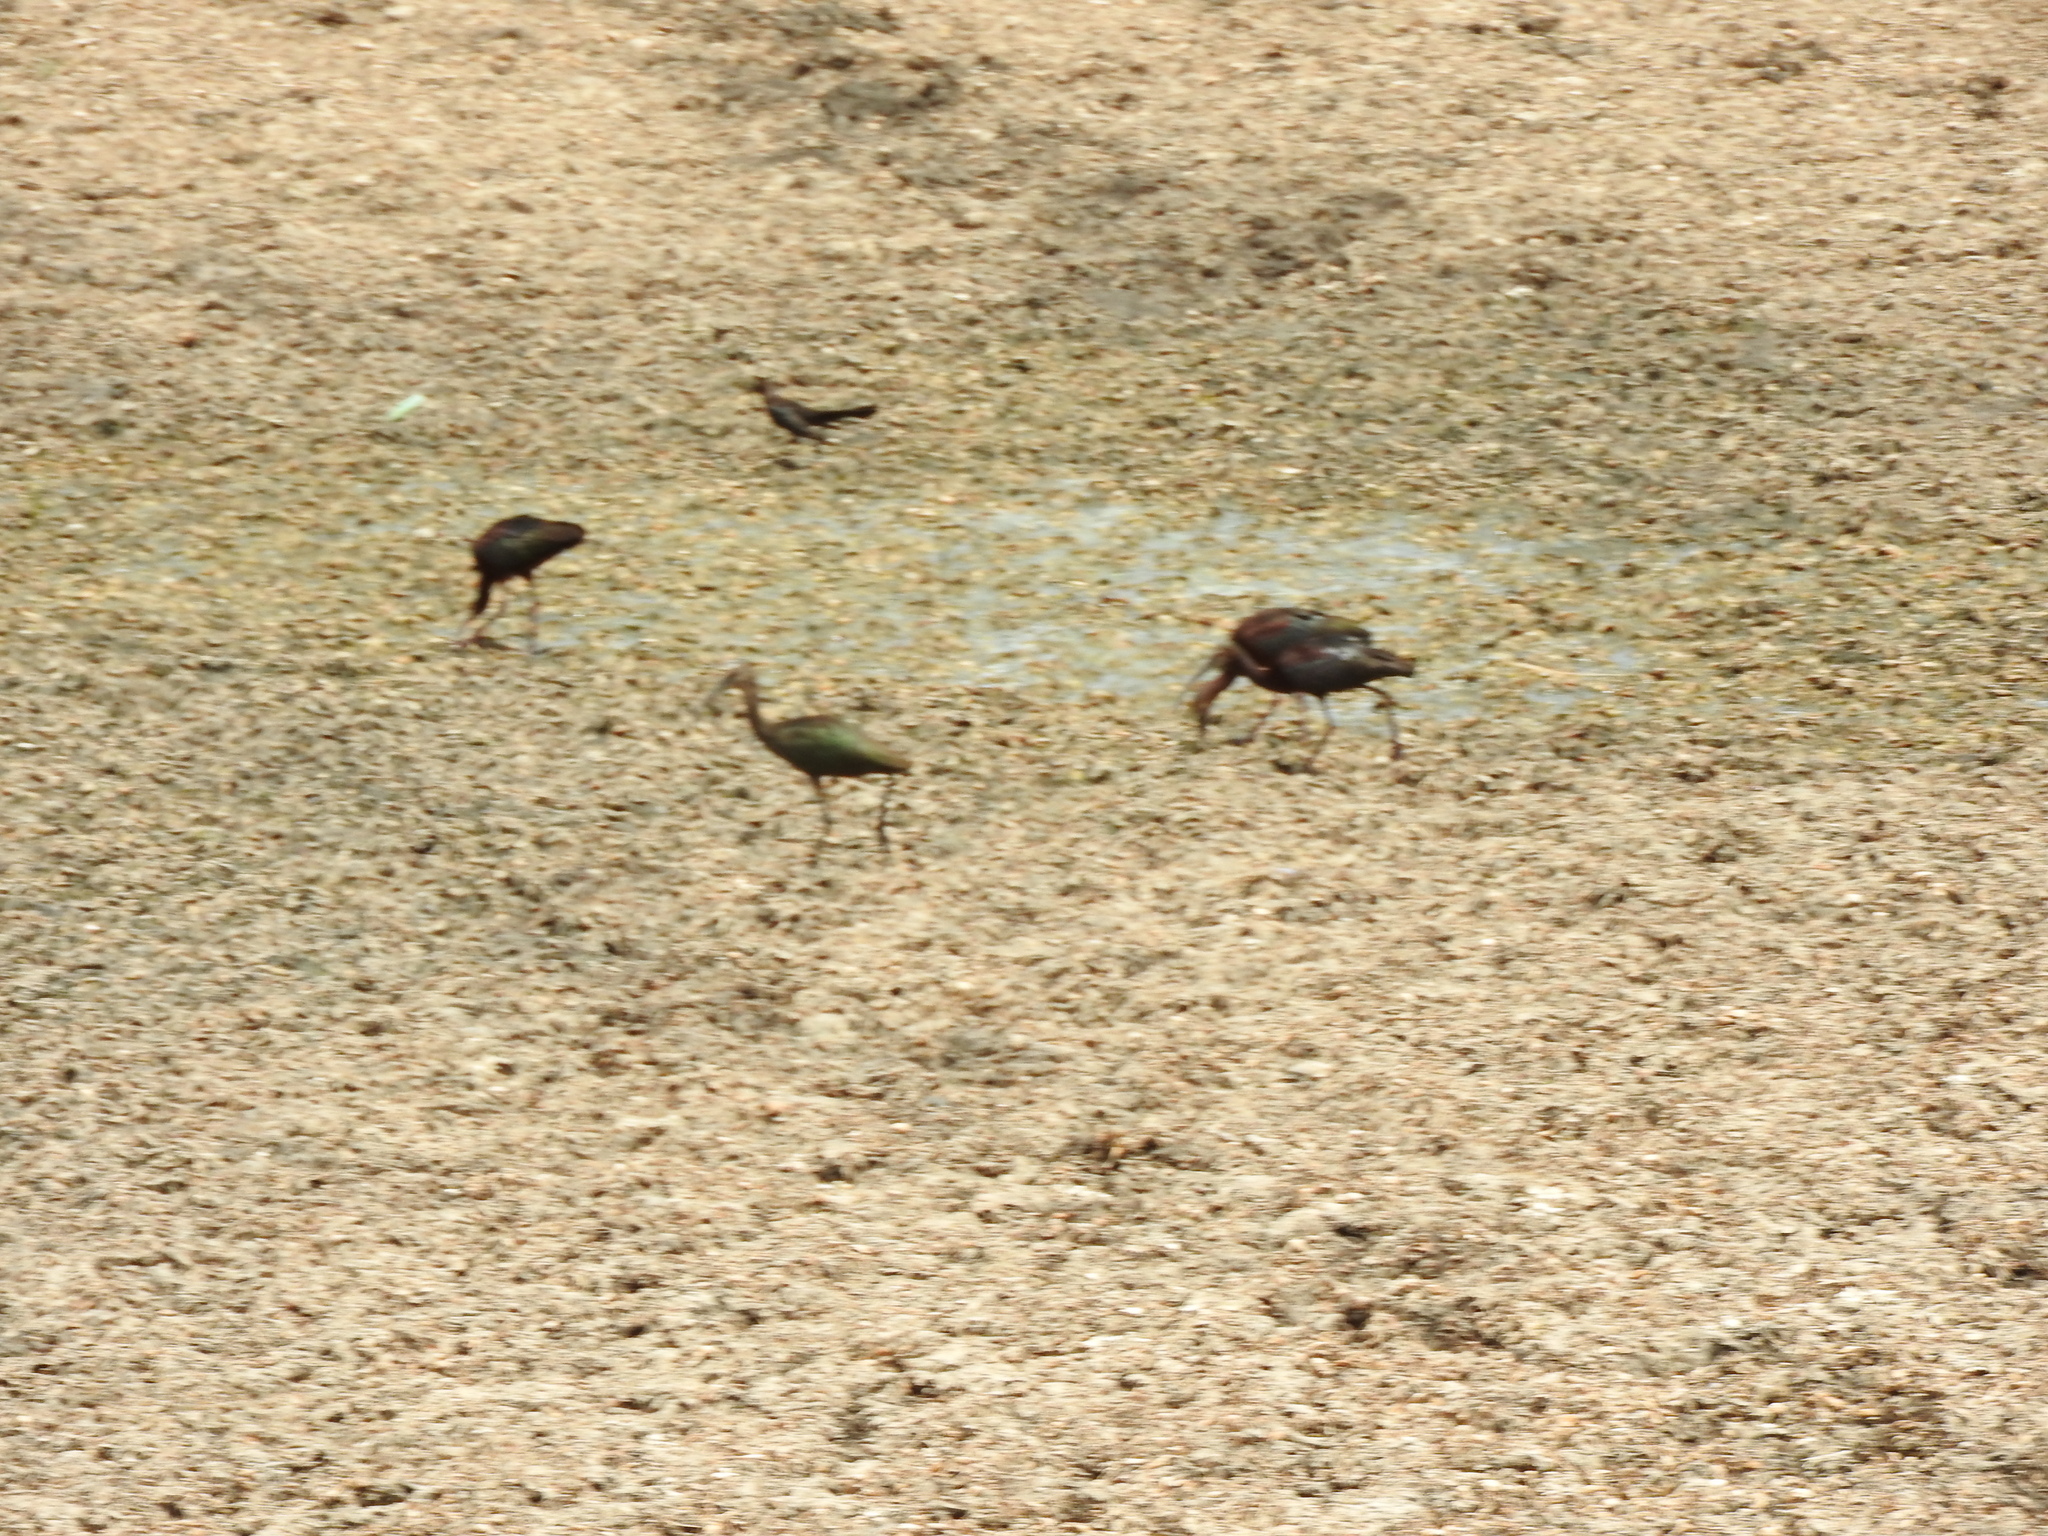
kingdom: Animalia
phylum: Chordata
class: Aves
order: Pelecaniformes
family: Threskiornithidae
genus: Plegadis
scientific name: Plegadis chihi
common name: White-faced ibis
